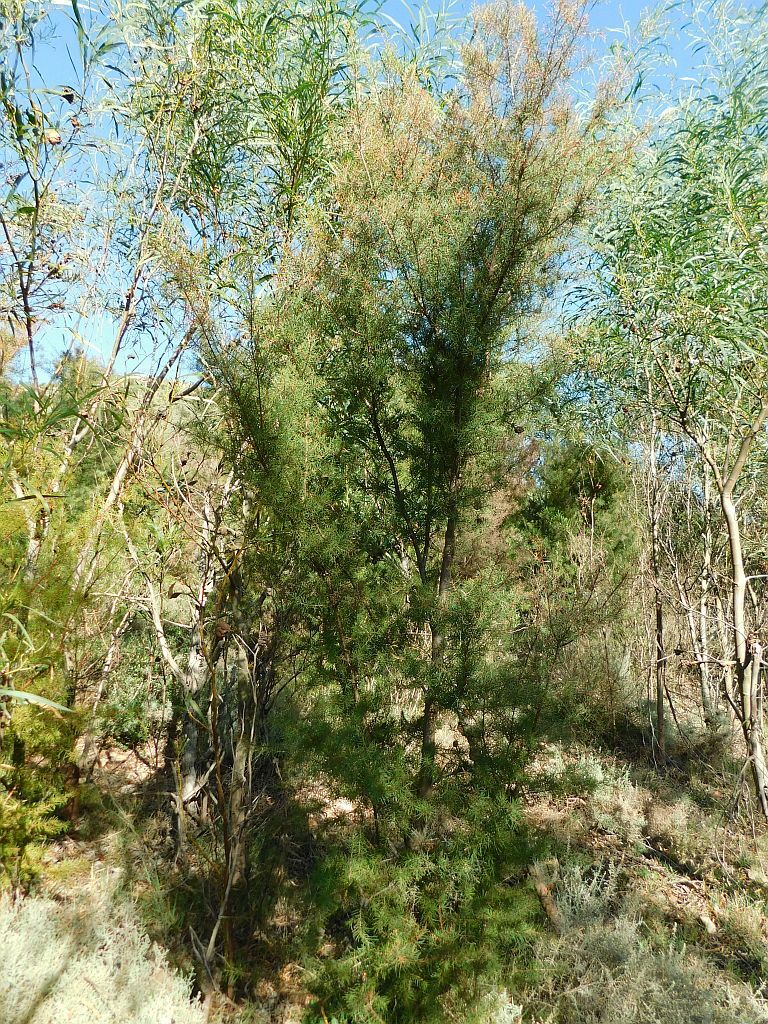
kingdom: Plantae
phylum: Tracheophyta
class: Magnoliopsida
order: Proteales
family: Proteaceae
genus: Hakea
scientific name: Hakea sericea
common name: Needle bush
